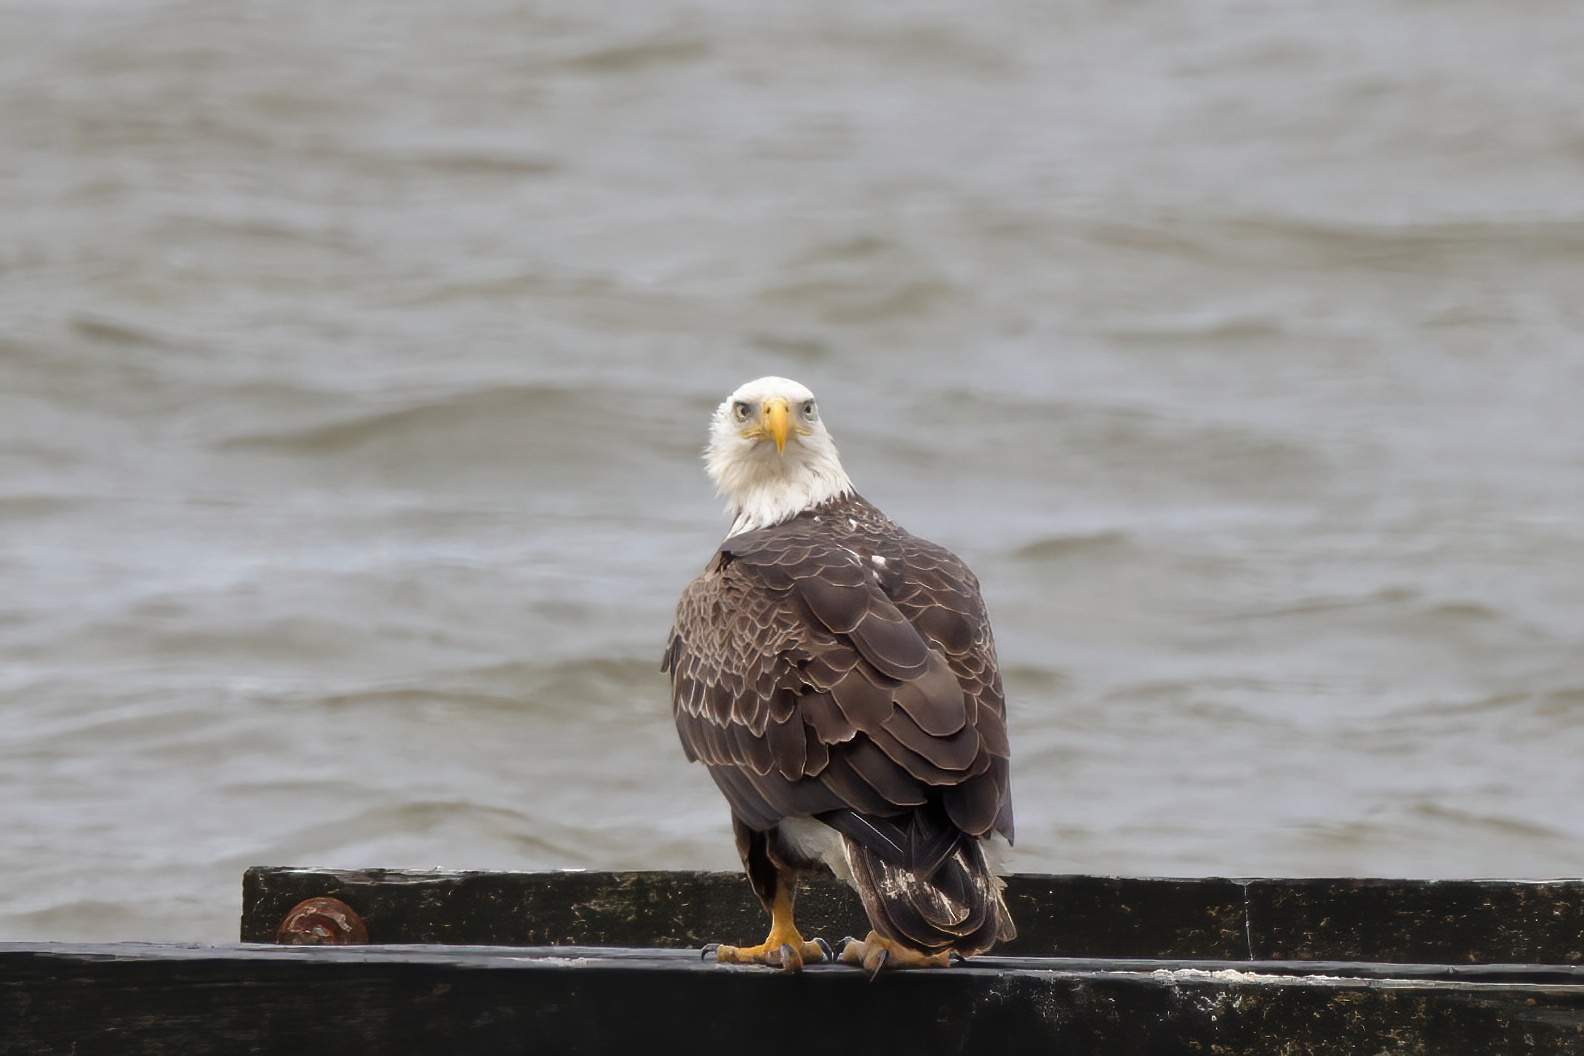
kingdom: Animalia
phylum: Chordata
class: Aves
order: Accipitriformes
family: Accipitridae
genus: Haliaeetus
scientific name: Haliaeetus leucocephalus
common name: Bald eagle
